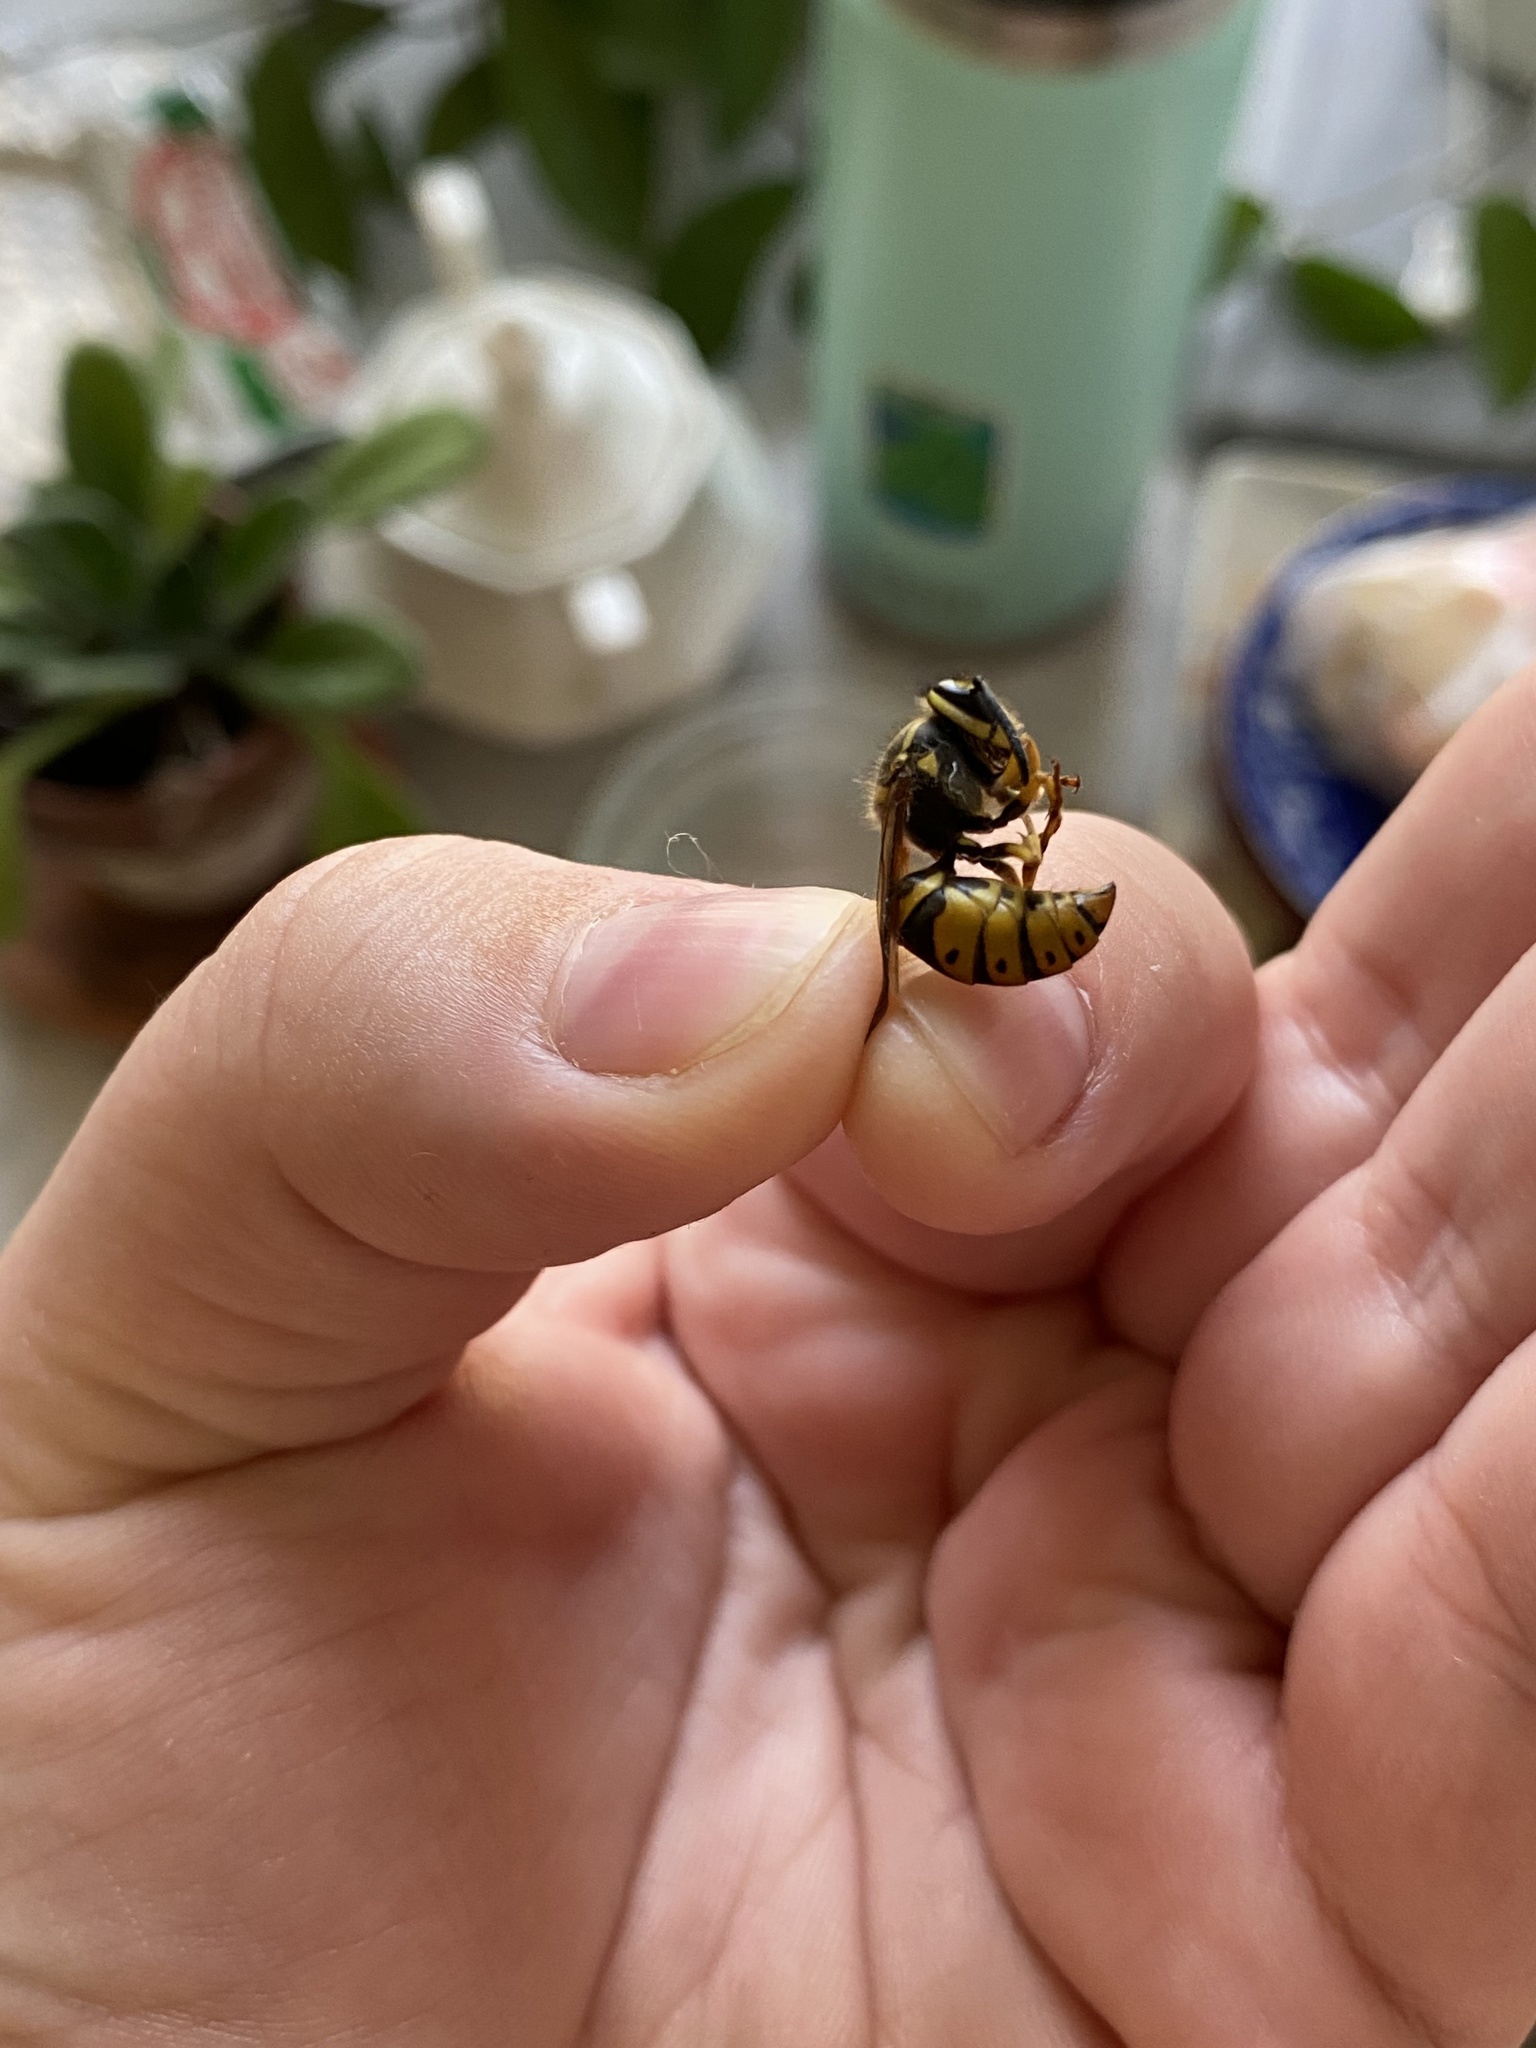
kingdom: Animalia
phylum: Arthropoda
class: Insecta
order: Hymenoptera
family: Vespidae
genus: Vespula
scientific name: Vespula maculifrons
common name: Eastern yellowjacket
